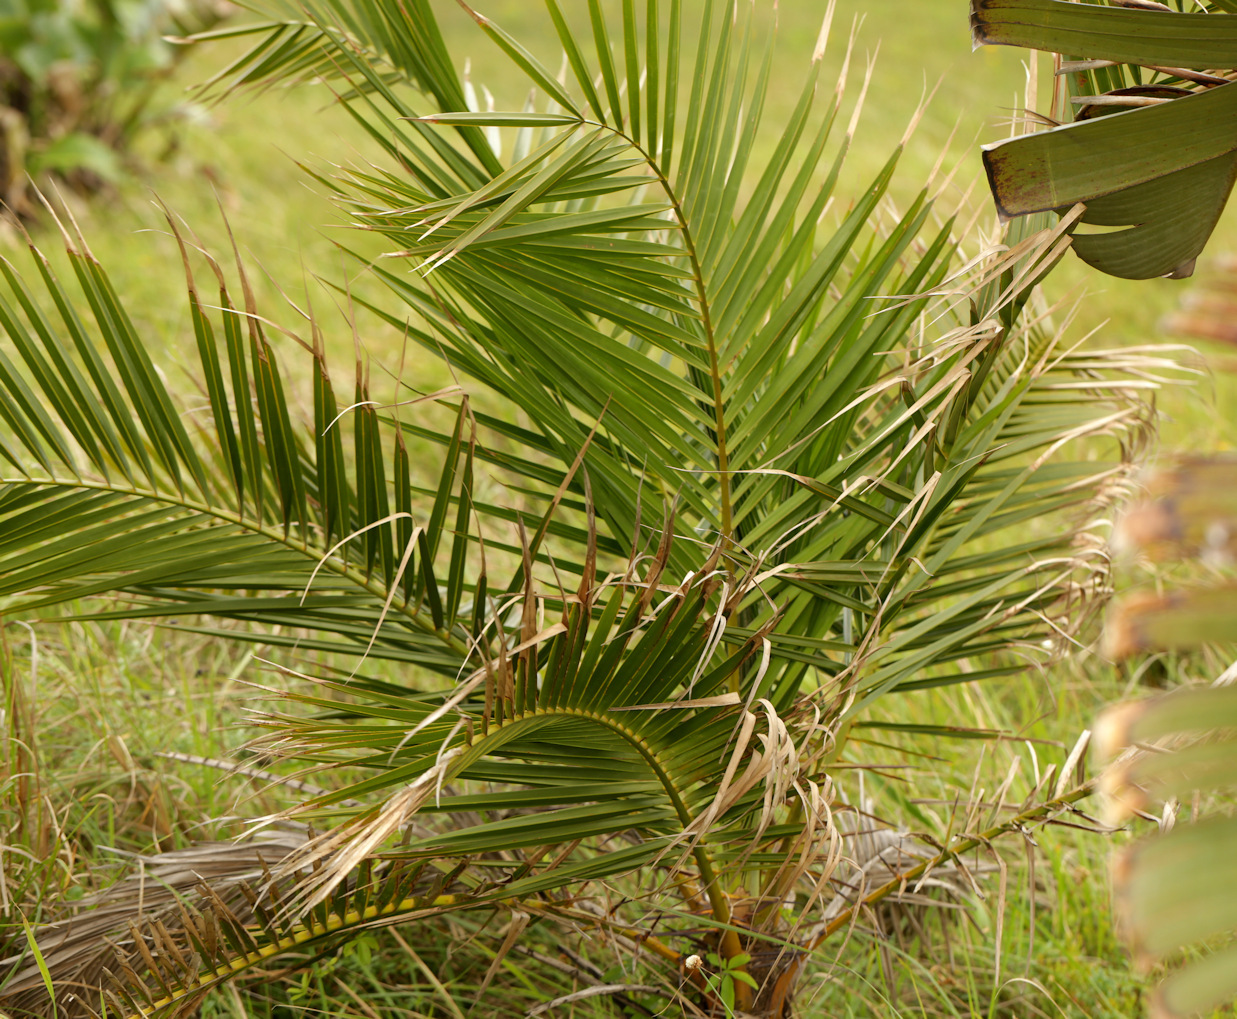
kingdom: Plantae
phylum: Tracheophyta
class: Liliopsida
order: Arecales
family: Arecaceae
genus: Phoenix
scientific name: Phoenix reclinata
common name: Senegal date palm
